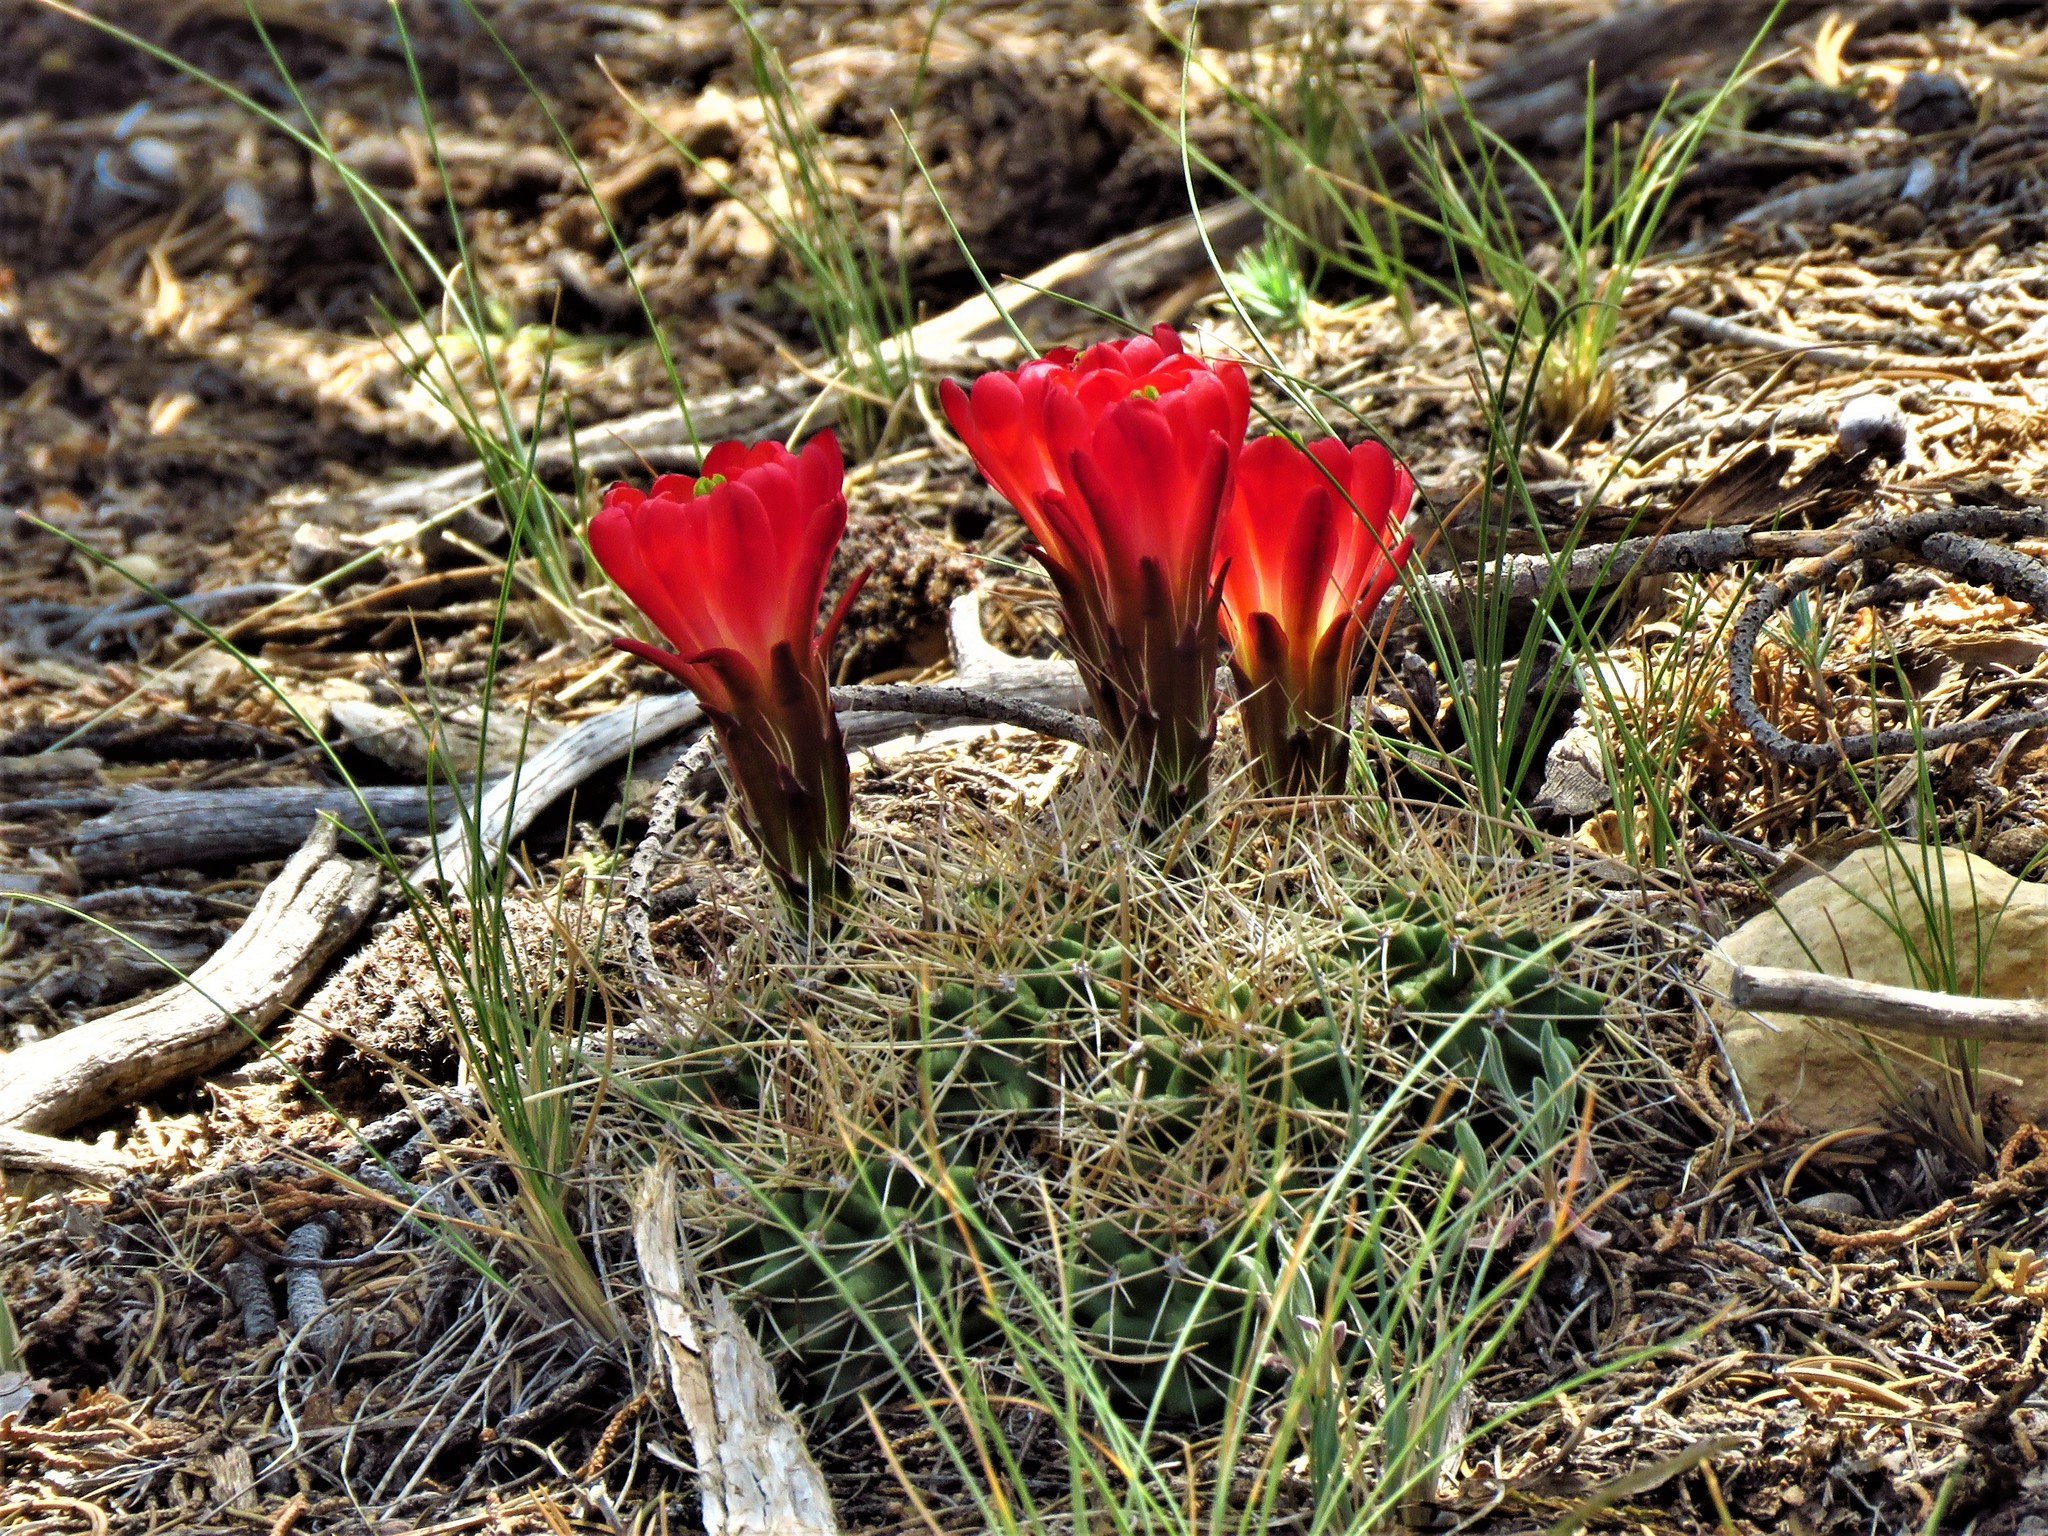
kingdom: Plantae
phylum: Tracheophyta
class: Magnoliopsida
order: Caryophyllales
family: Cactaceae
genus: Echinocereus
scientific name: Echinocereus triglochidiatus
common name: Claretcup hedgehog
